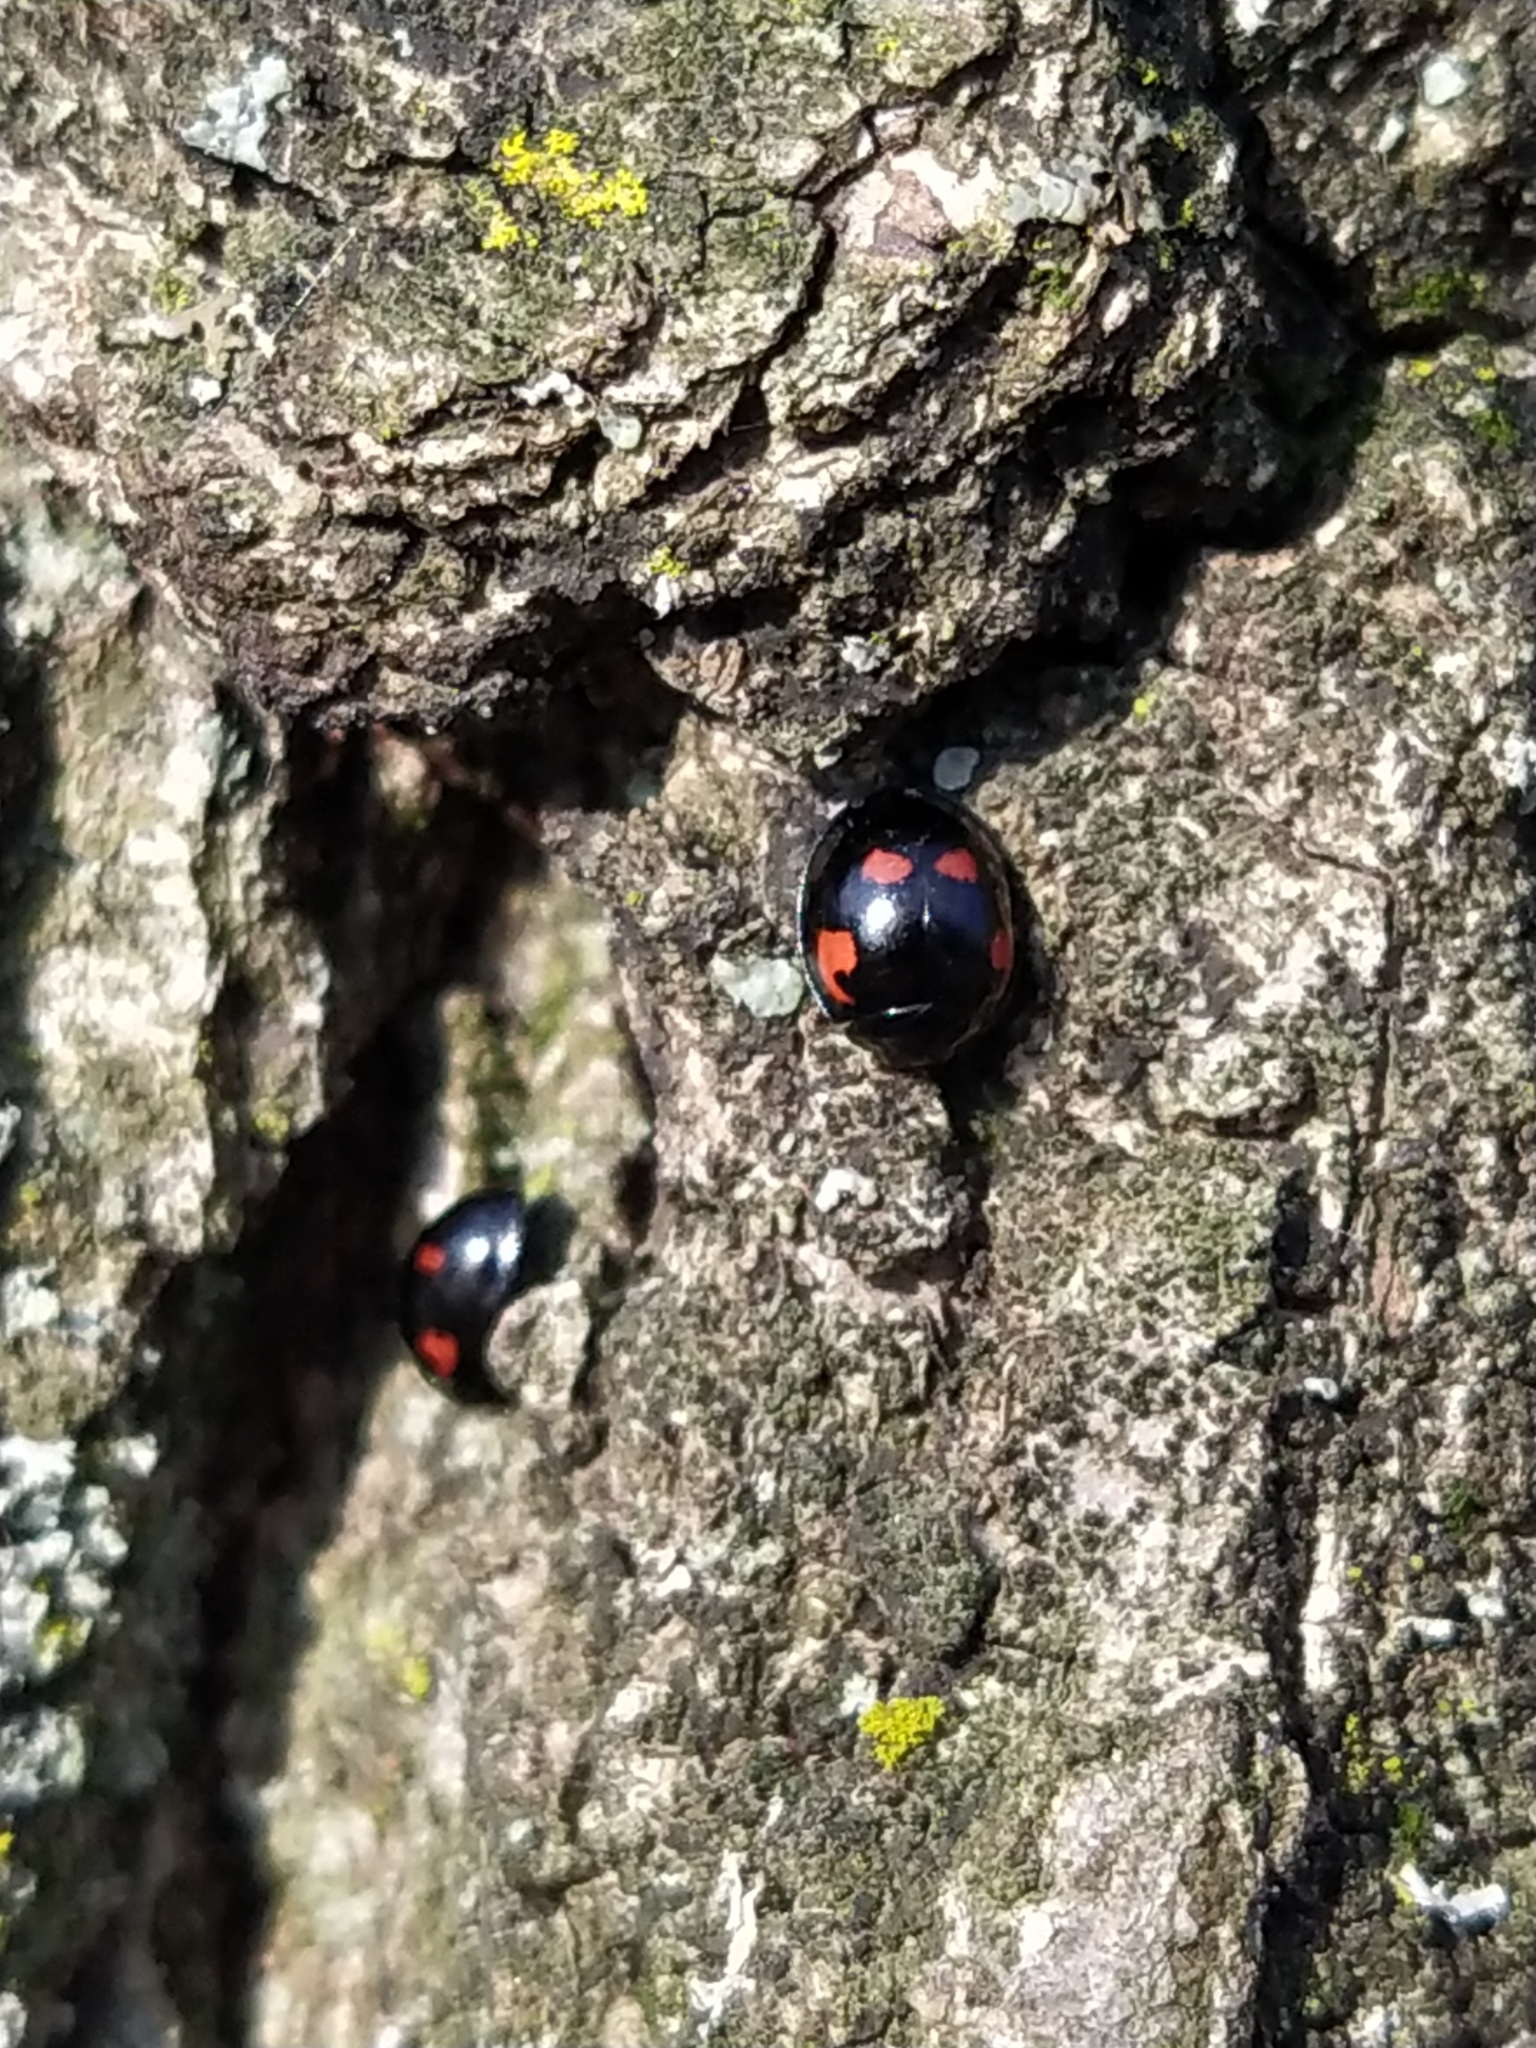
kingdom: Animalia
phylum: Arthropoda
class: Insecta
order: Coleoptera
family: Coccinellidae
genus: Brumus
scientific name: Brumus quadripustulatus
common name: Ladybird beetle
